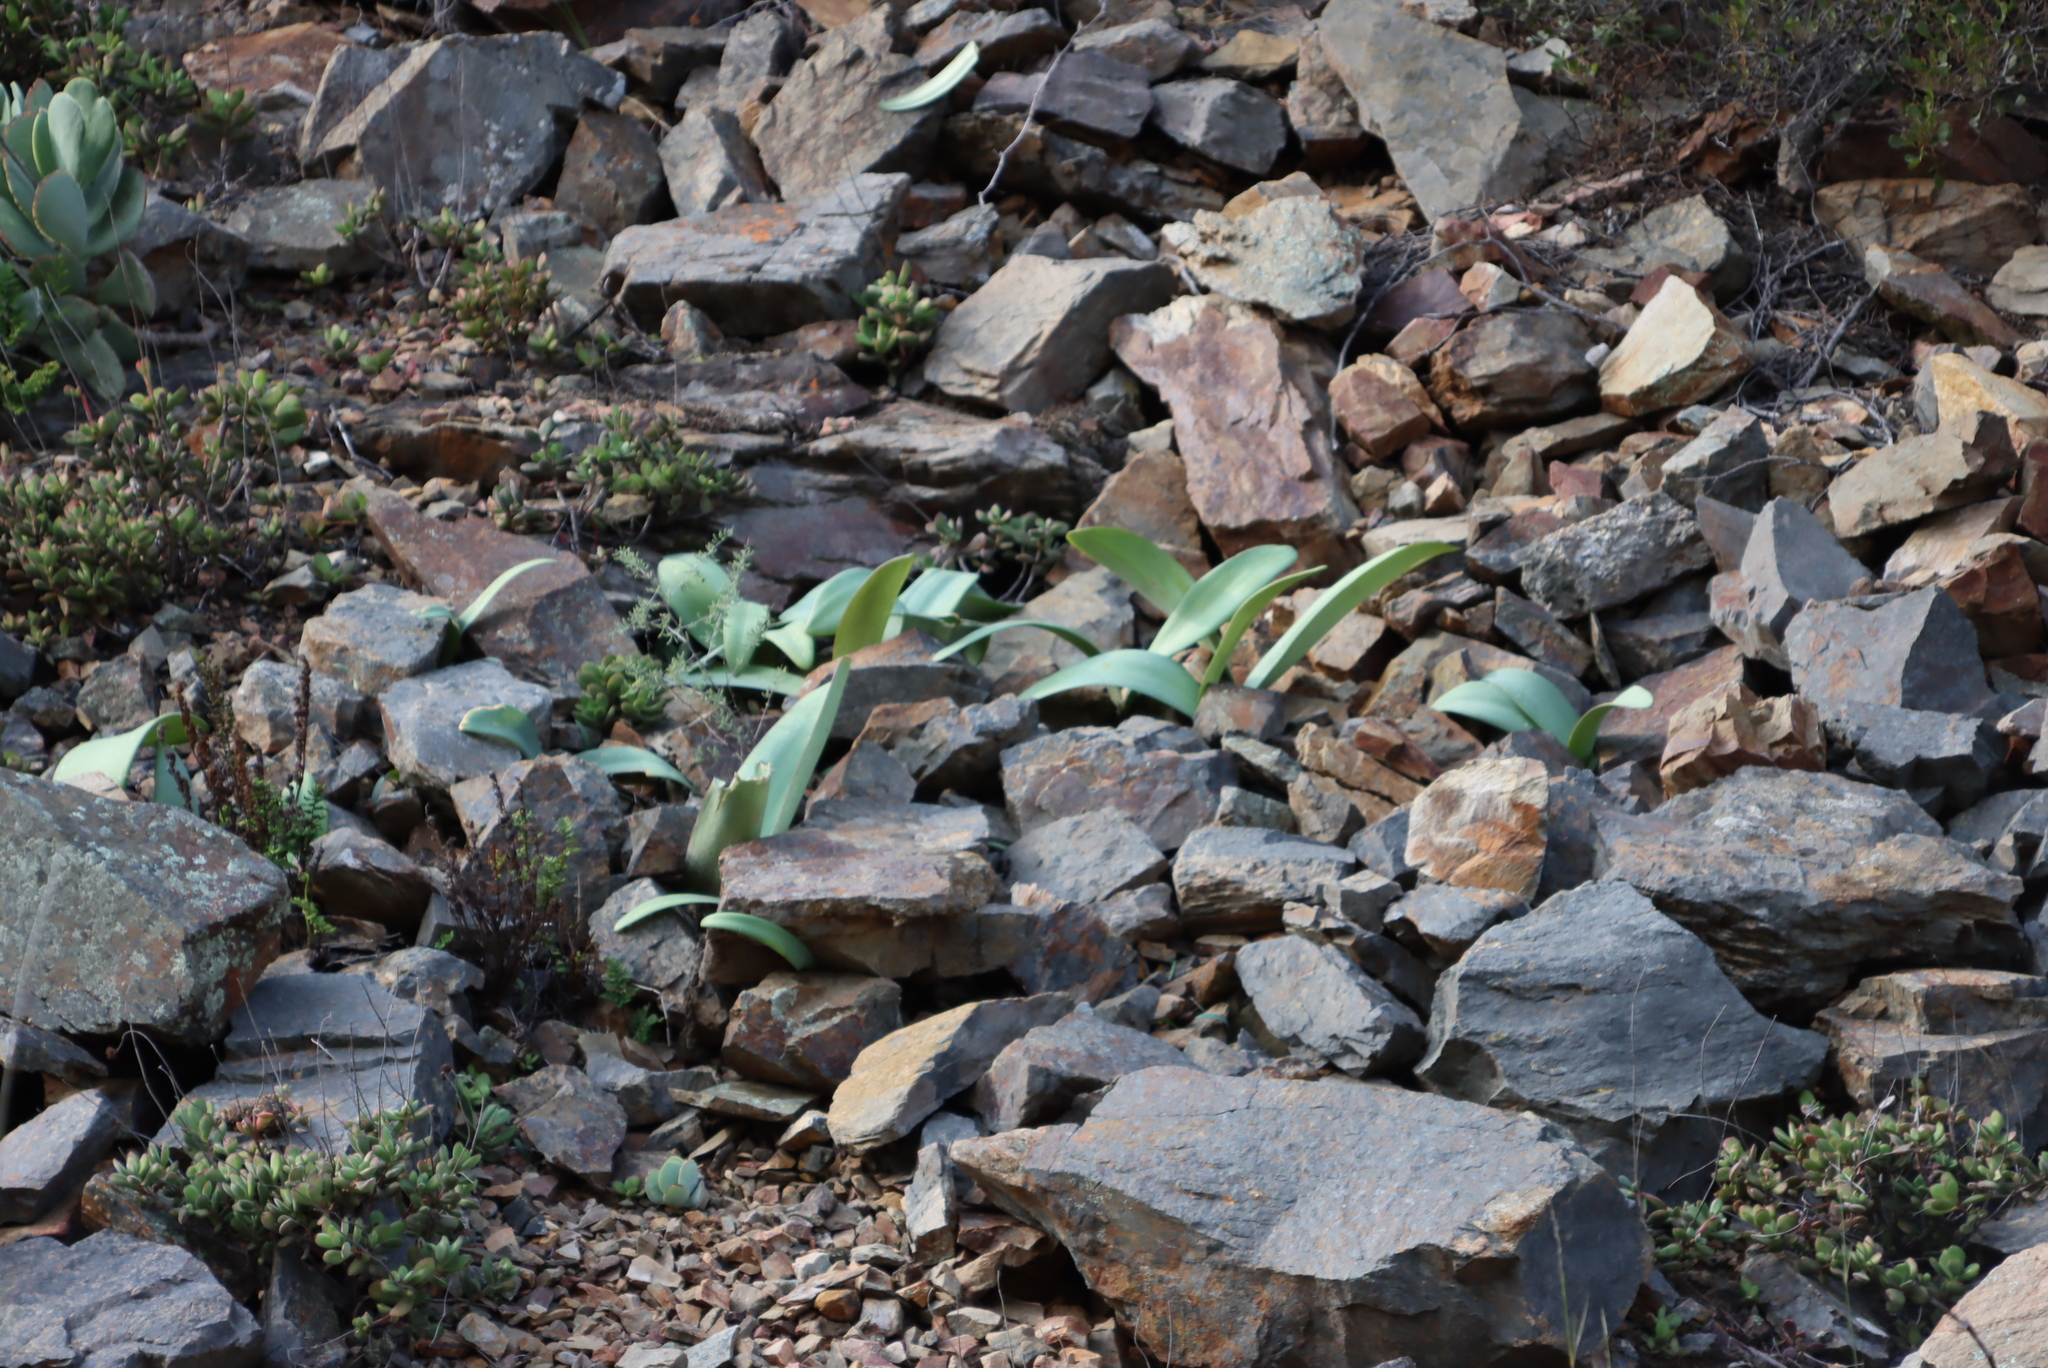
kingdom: Plantae
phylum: Tracheophyta
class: Liliopsida
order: Asparagales
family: Amaryllidaceae
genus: Haemanthus
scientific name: Haemanthus coccineus
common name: Cape-tulip
